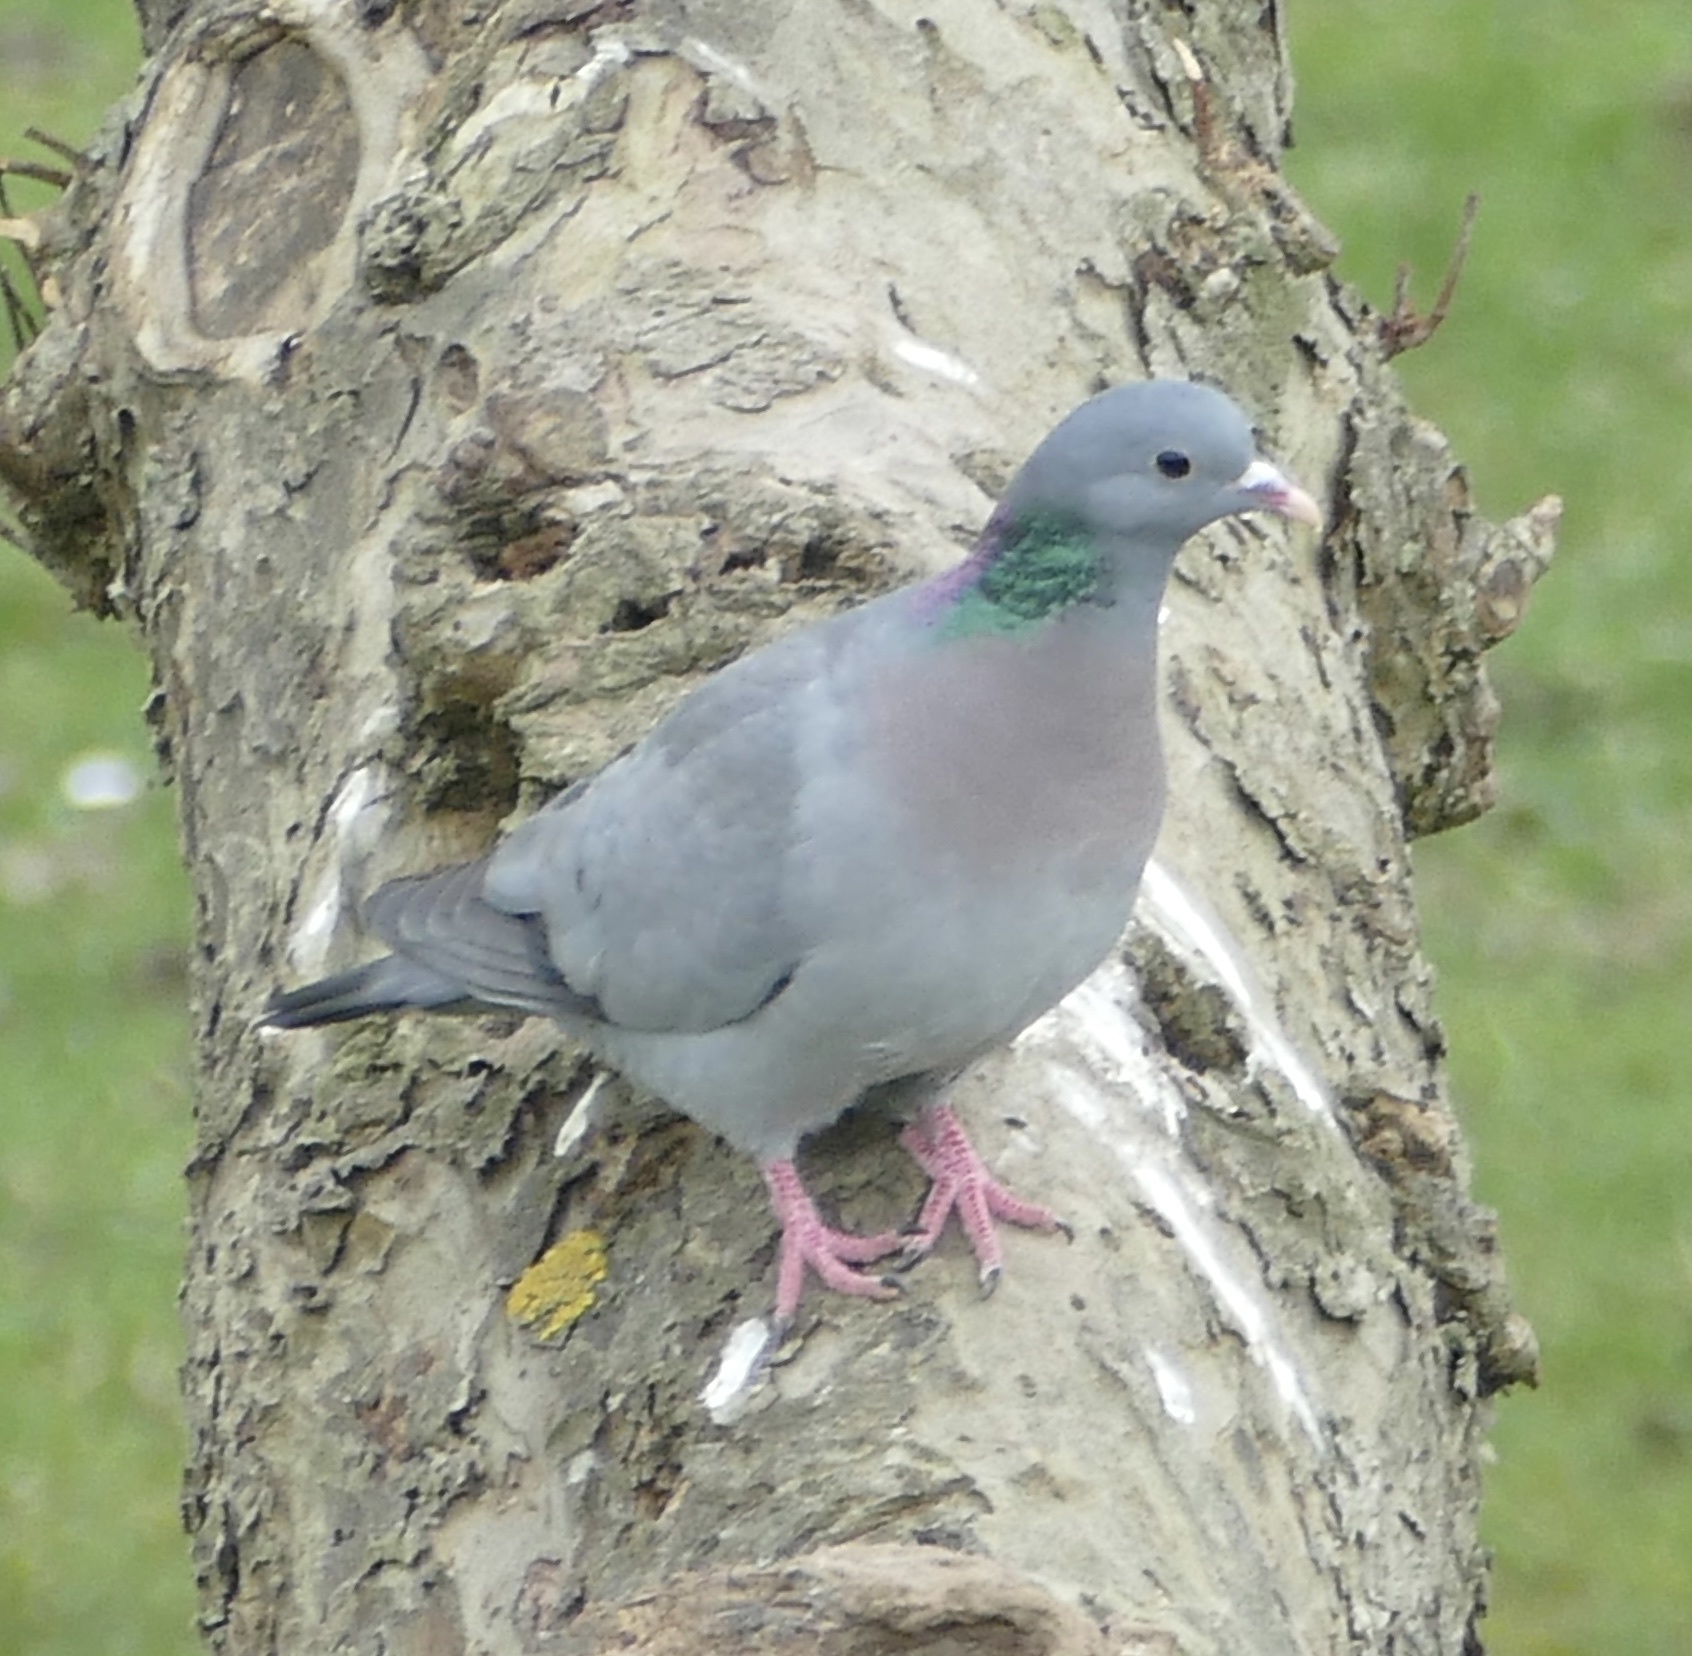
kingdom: Animalia
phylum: Chordata
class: Aves
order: Columbiformes
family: Columbidae
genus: Columba
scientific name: Columba oenas
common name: Stock dove
